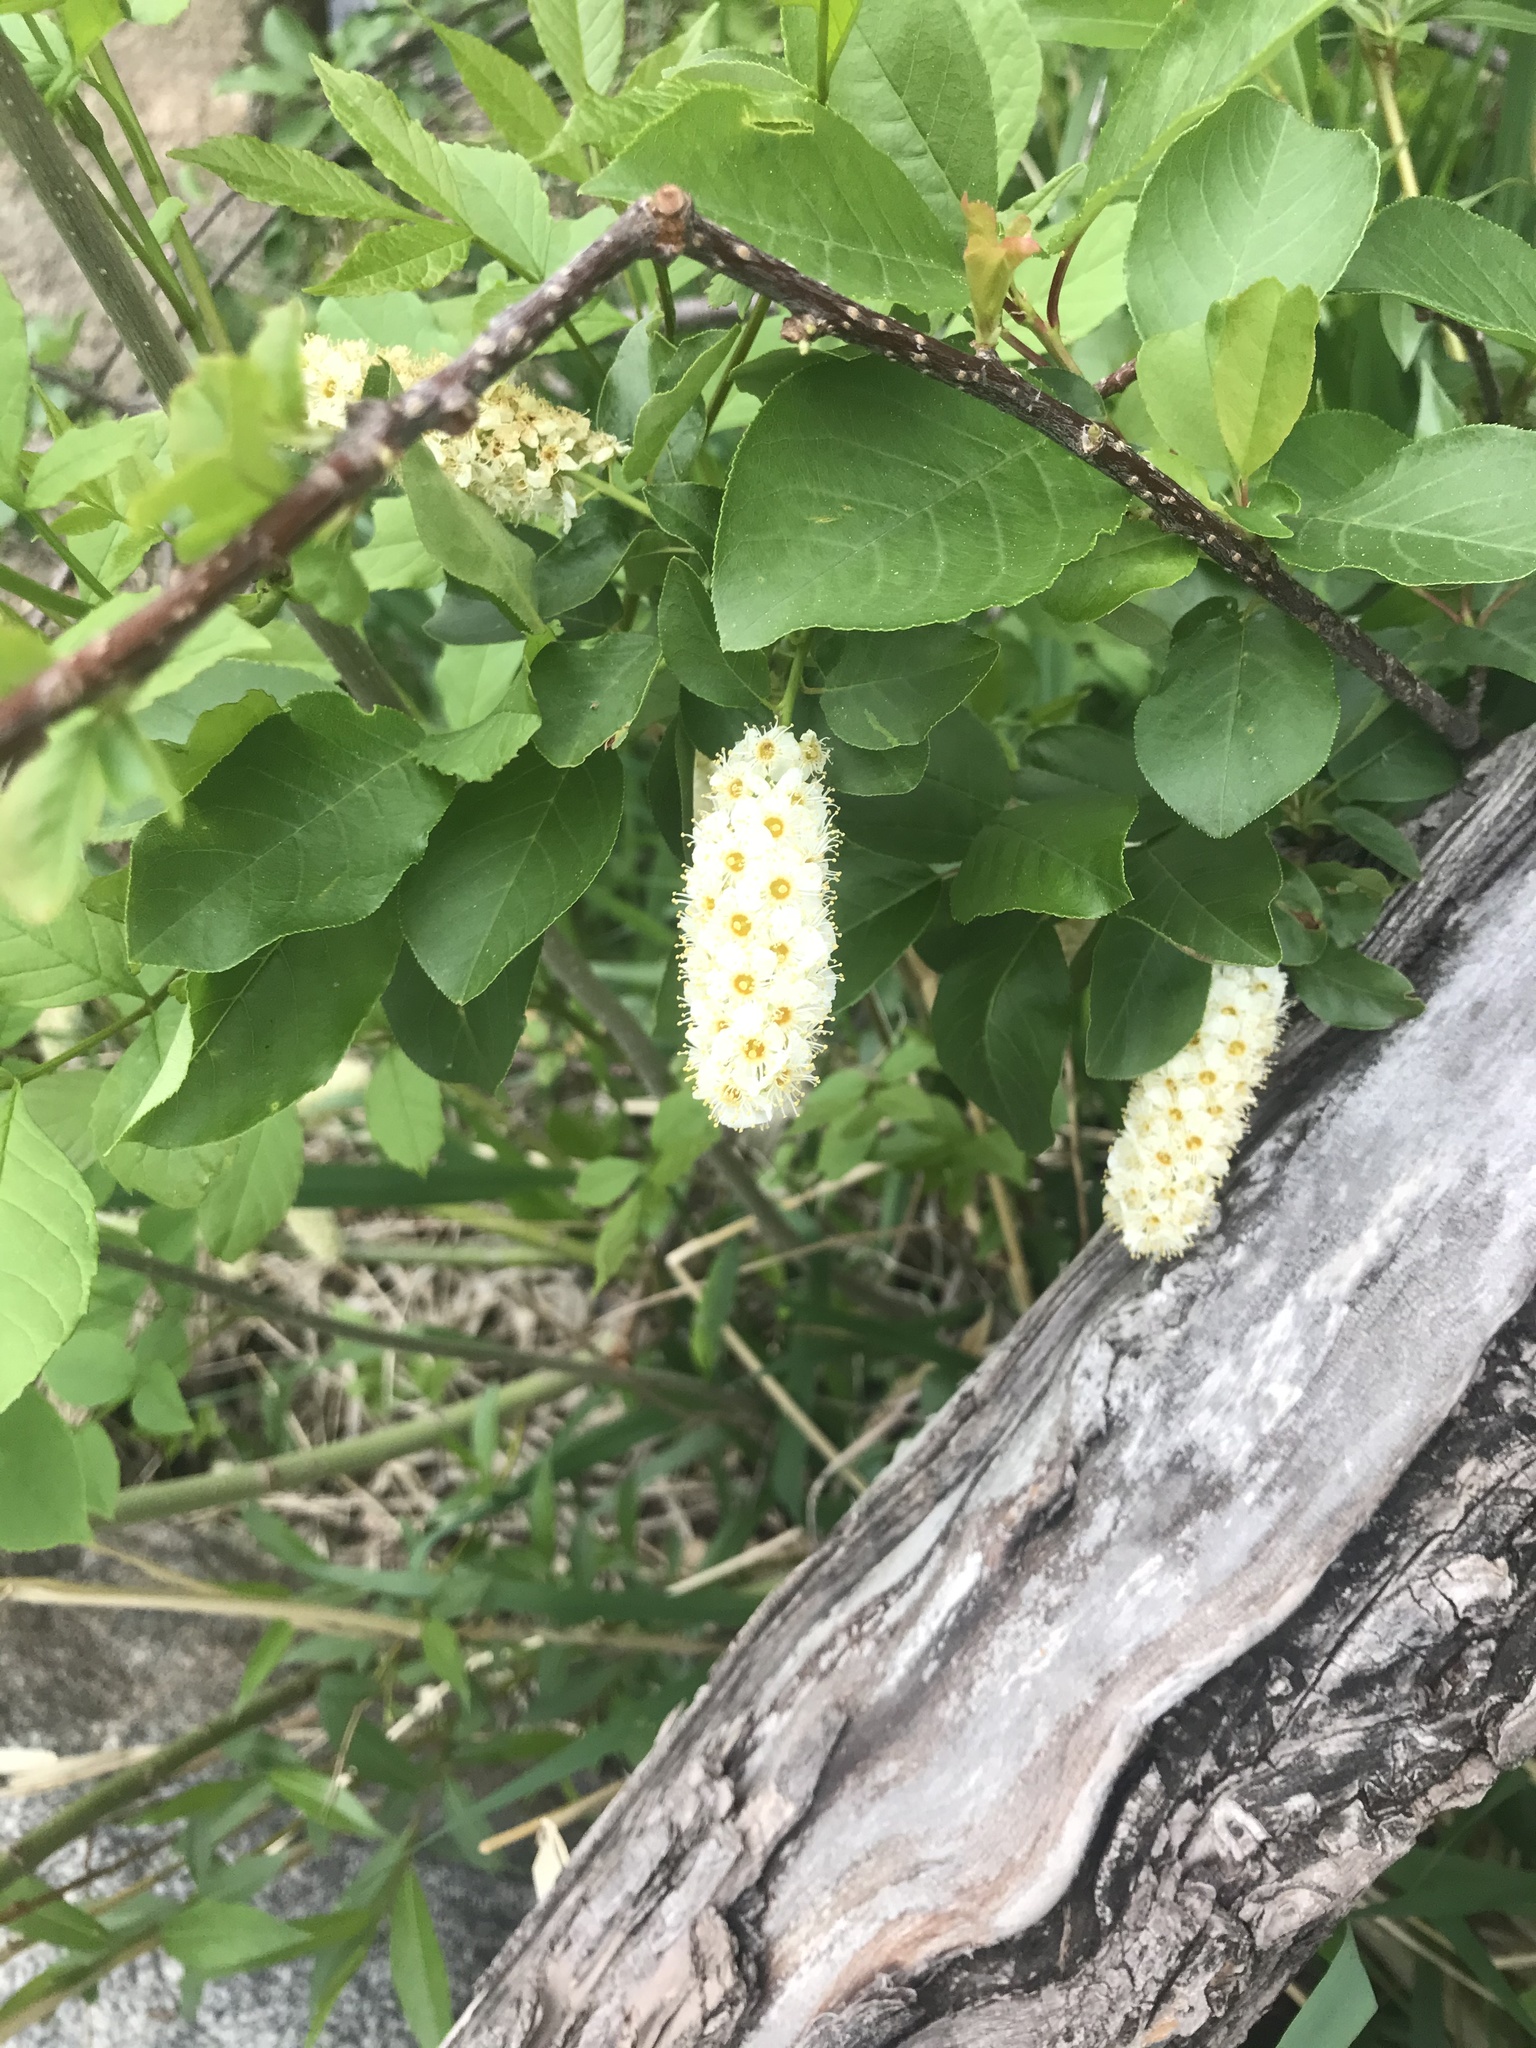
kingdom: Plantae
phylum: Tracheophyta
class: Magnoliopsida
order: Rosales
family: Rosaceae
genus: Prunus
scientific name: Prunus virginiana
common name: Chokecherry
